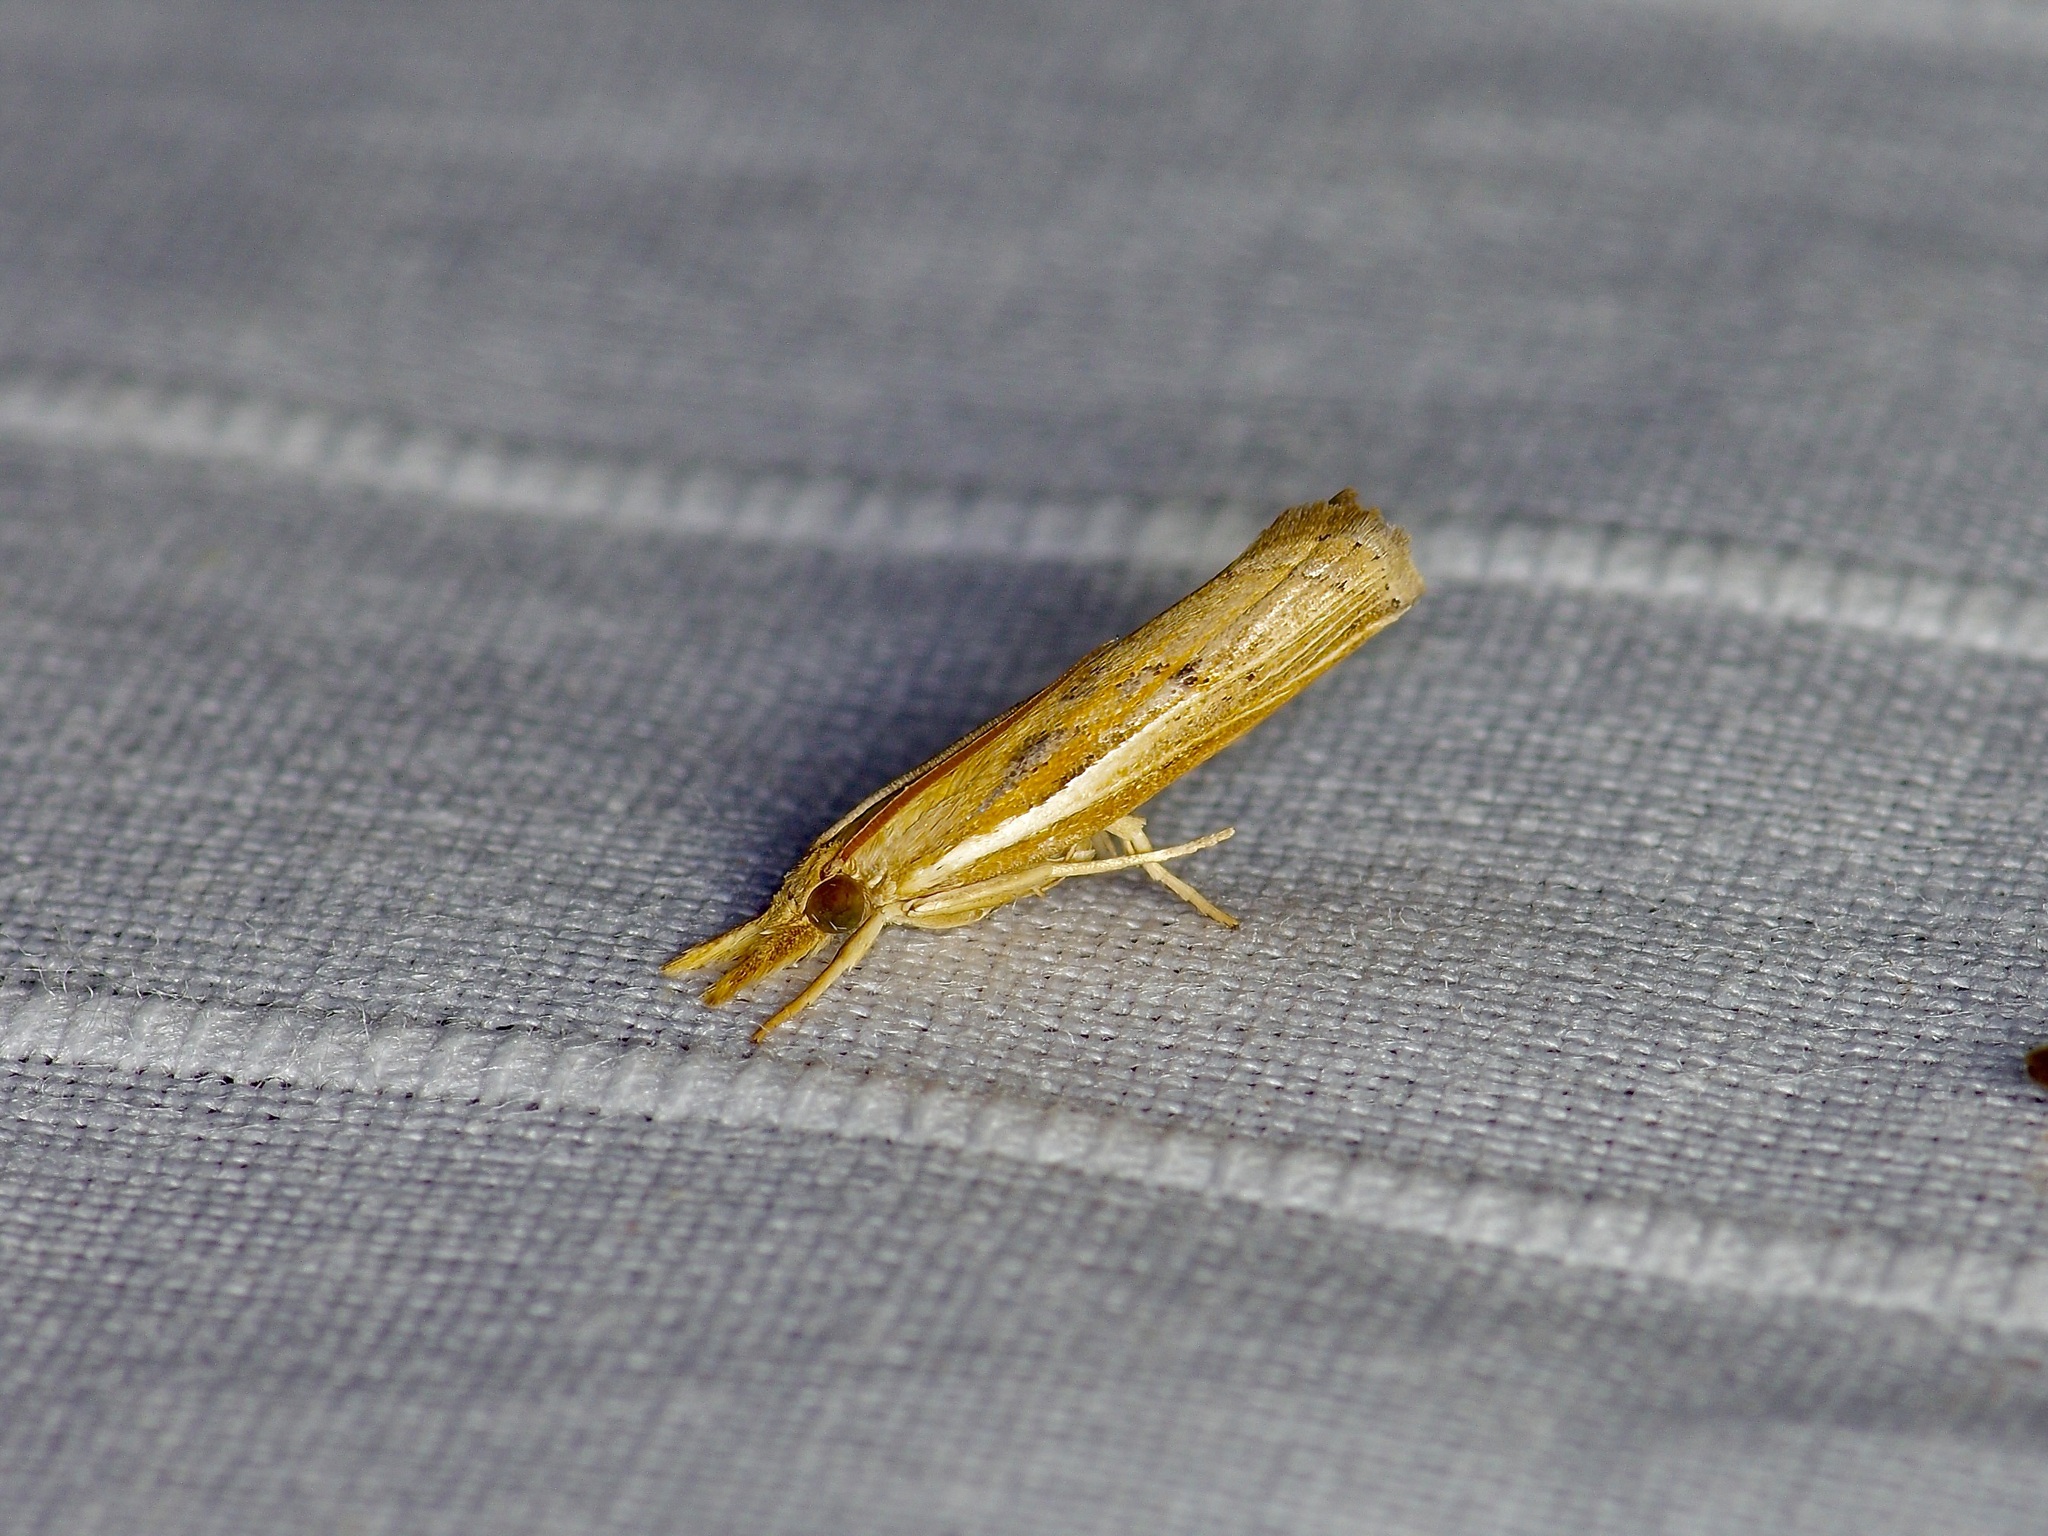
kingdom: Animalia
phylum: Arthropoda
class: Insecta
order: Lepidoptera
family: Crambidae
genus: Fissicrambus
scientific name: Fissicrambus mutabilis
